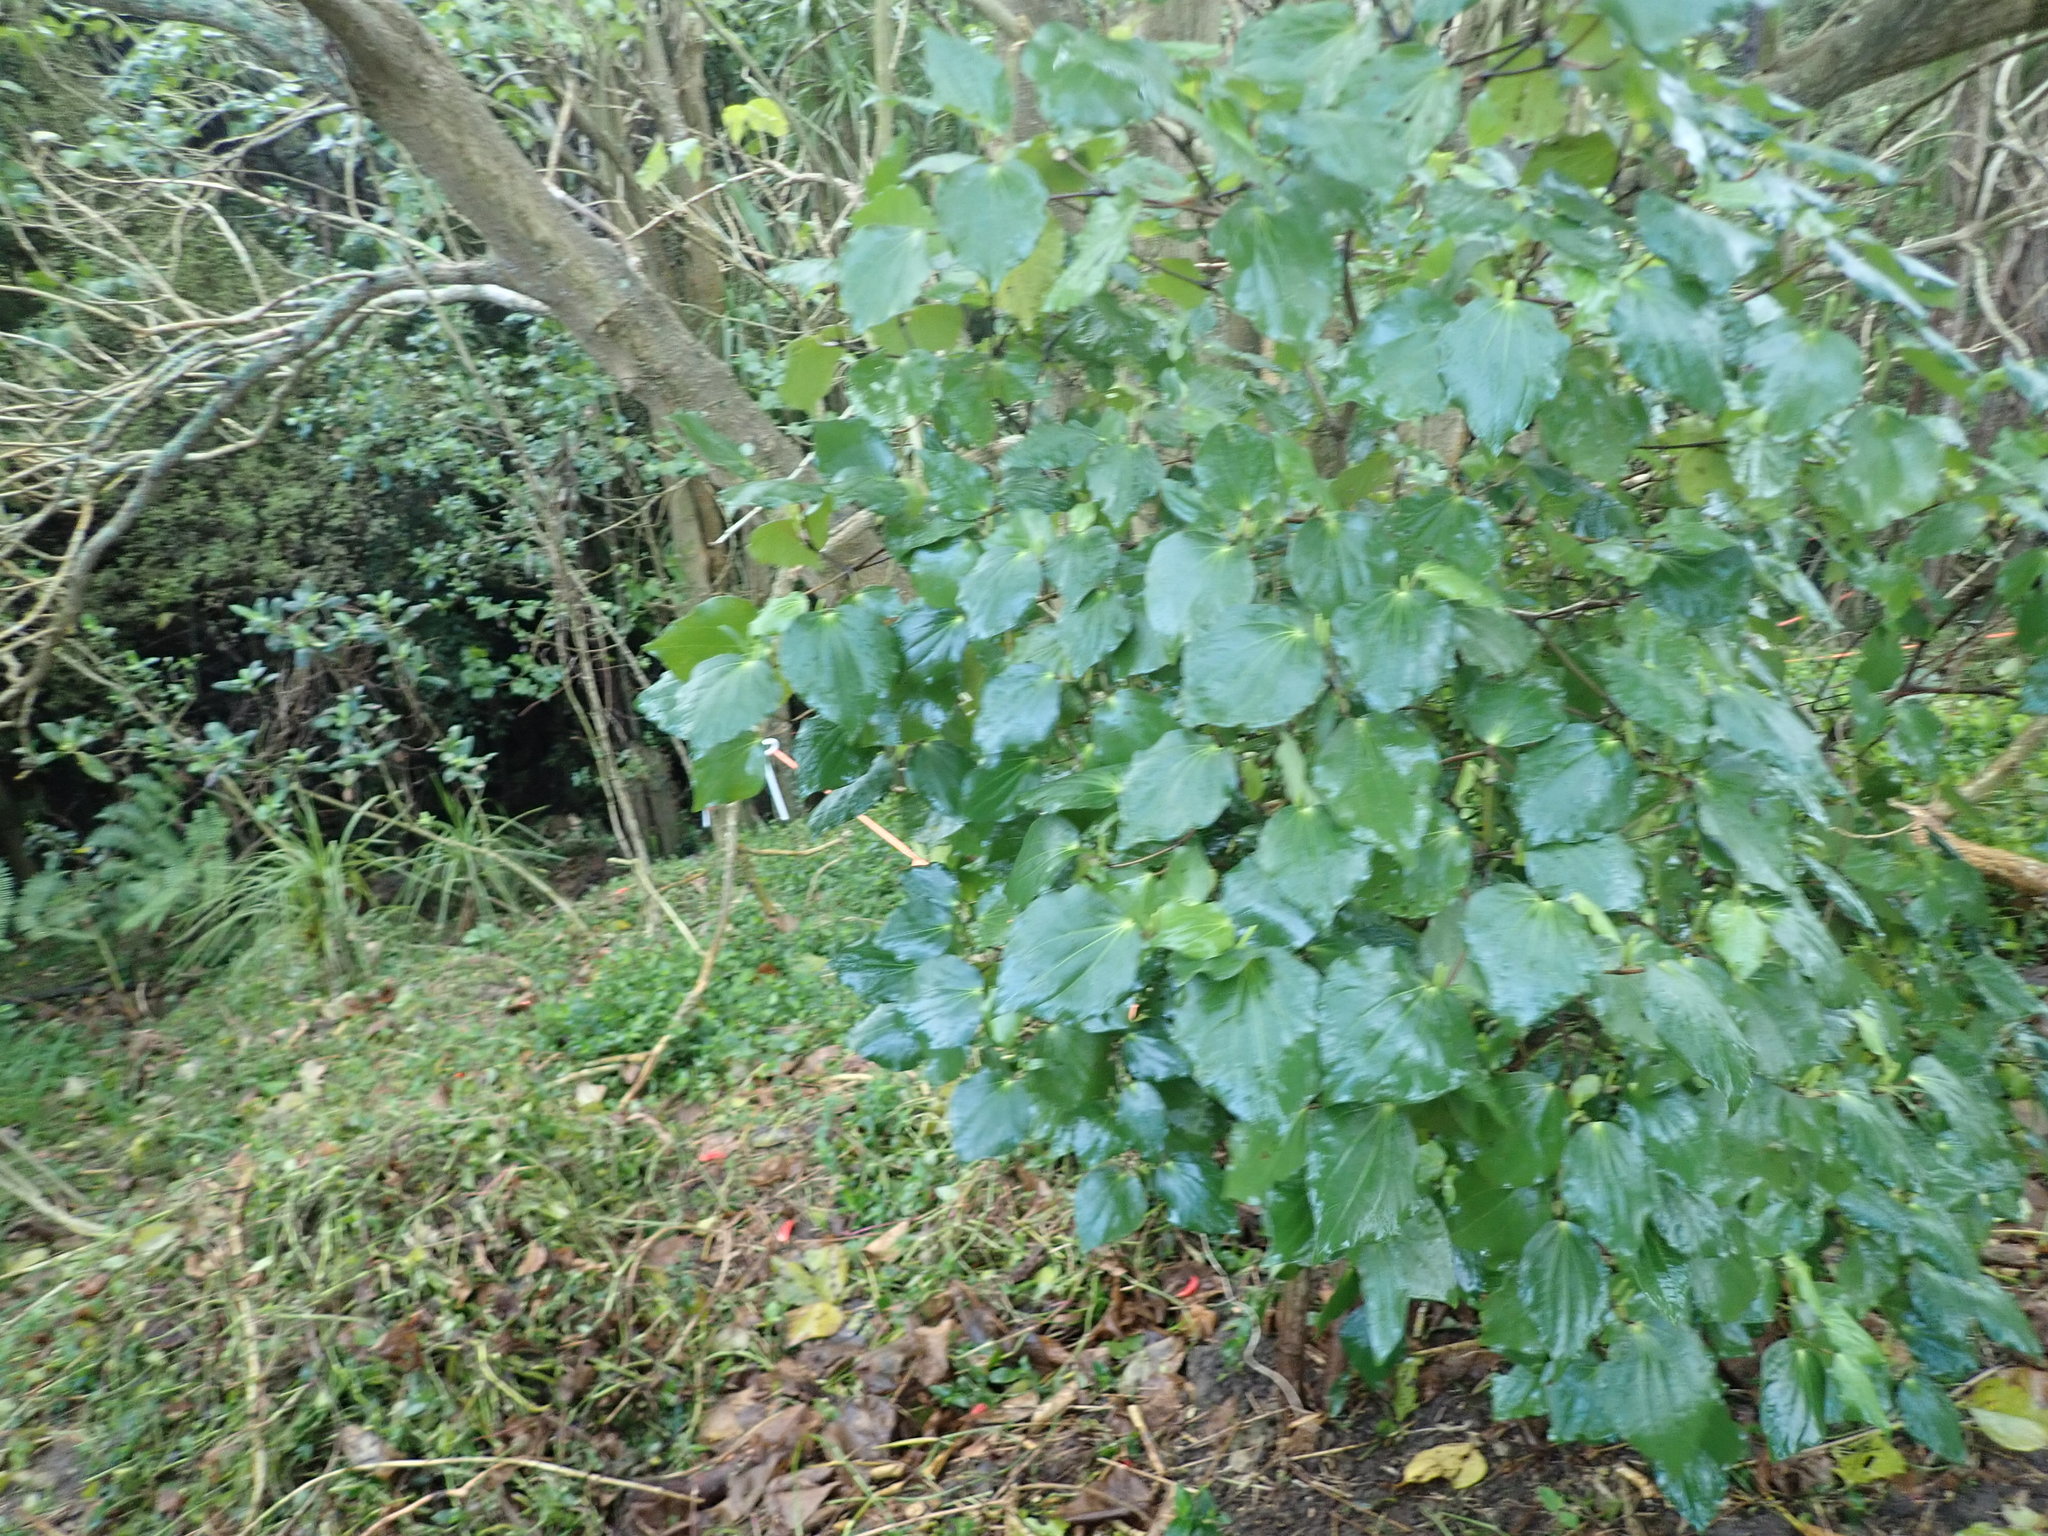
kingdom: Plantae
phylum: Tracheophyta
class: Liliopsida
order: Commelinales
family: Commelinaceae
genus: Tradescantia
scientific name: Tradescantia fluminensis
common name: Wandering-jew
